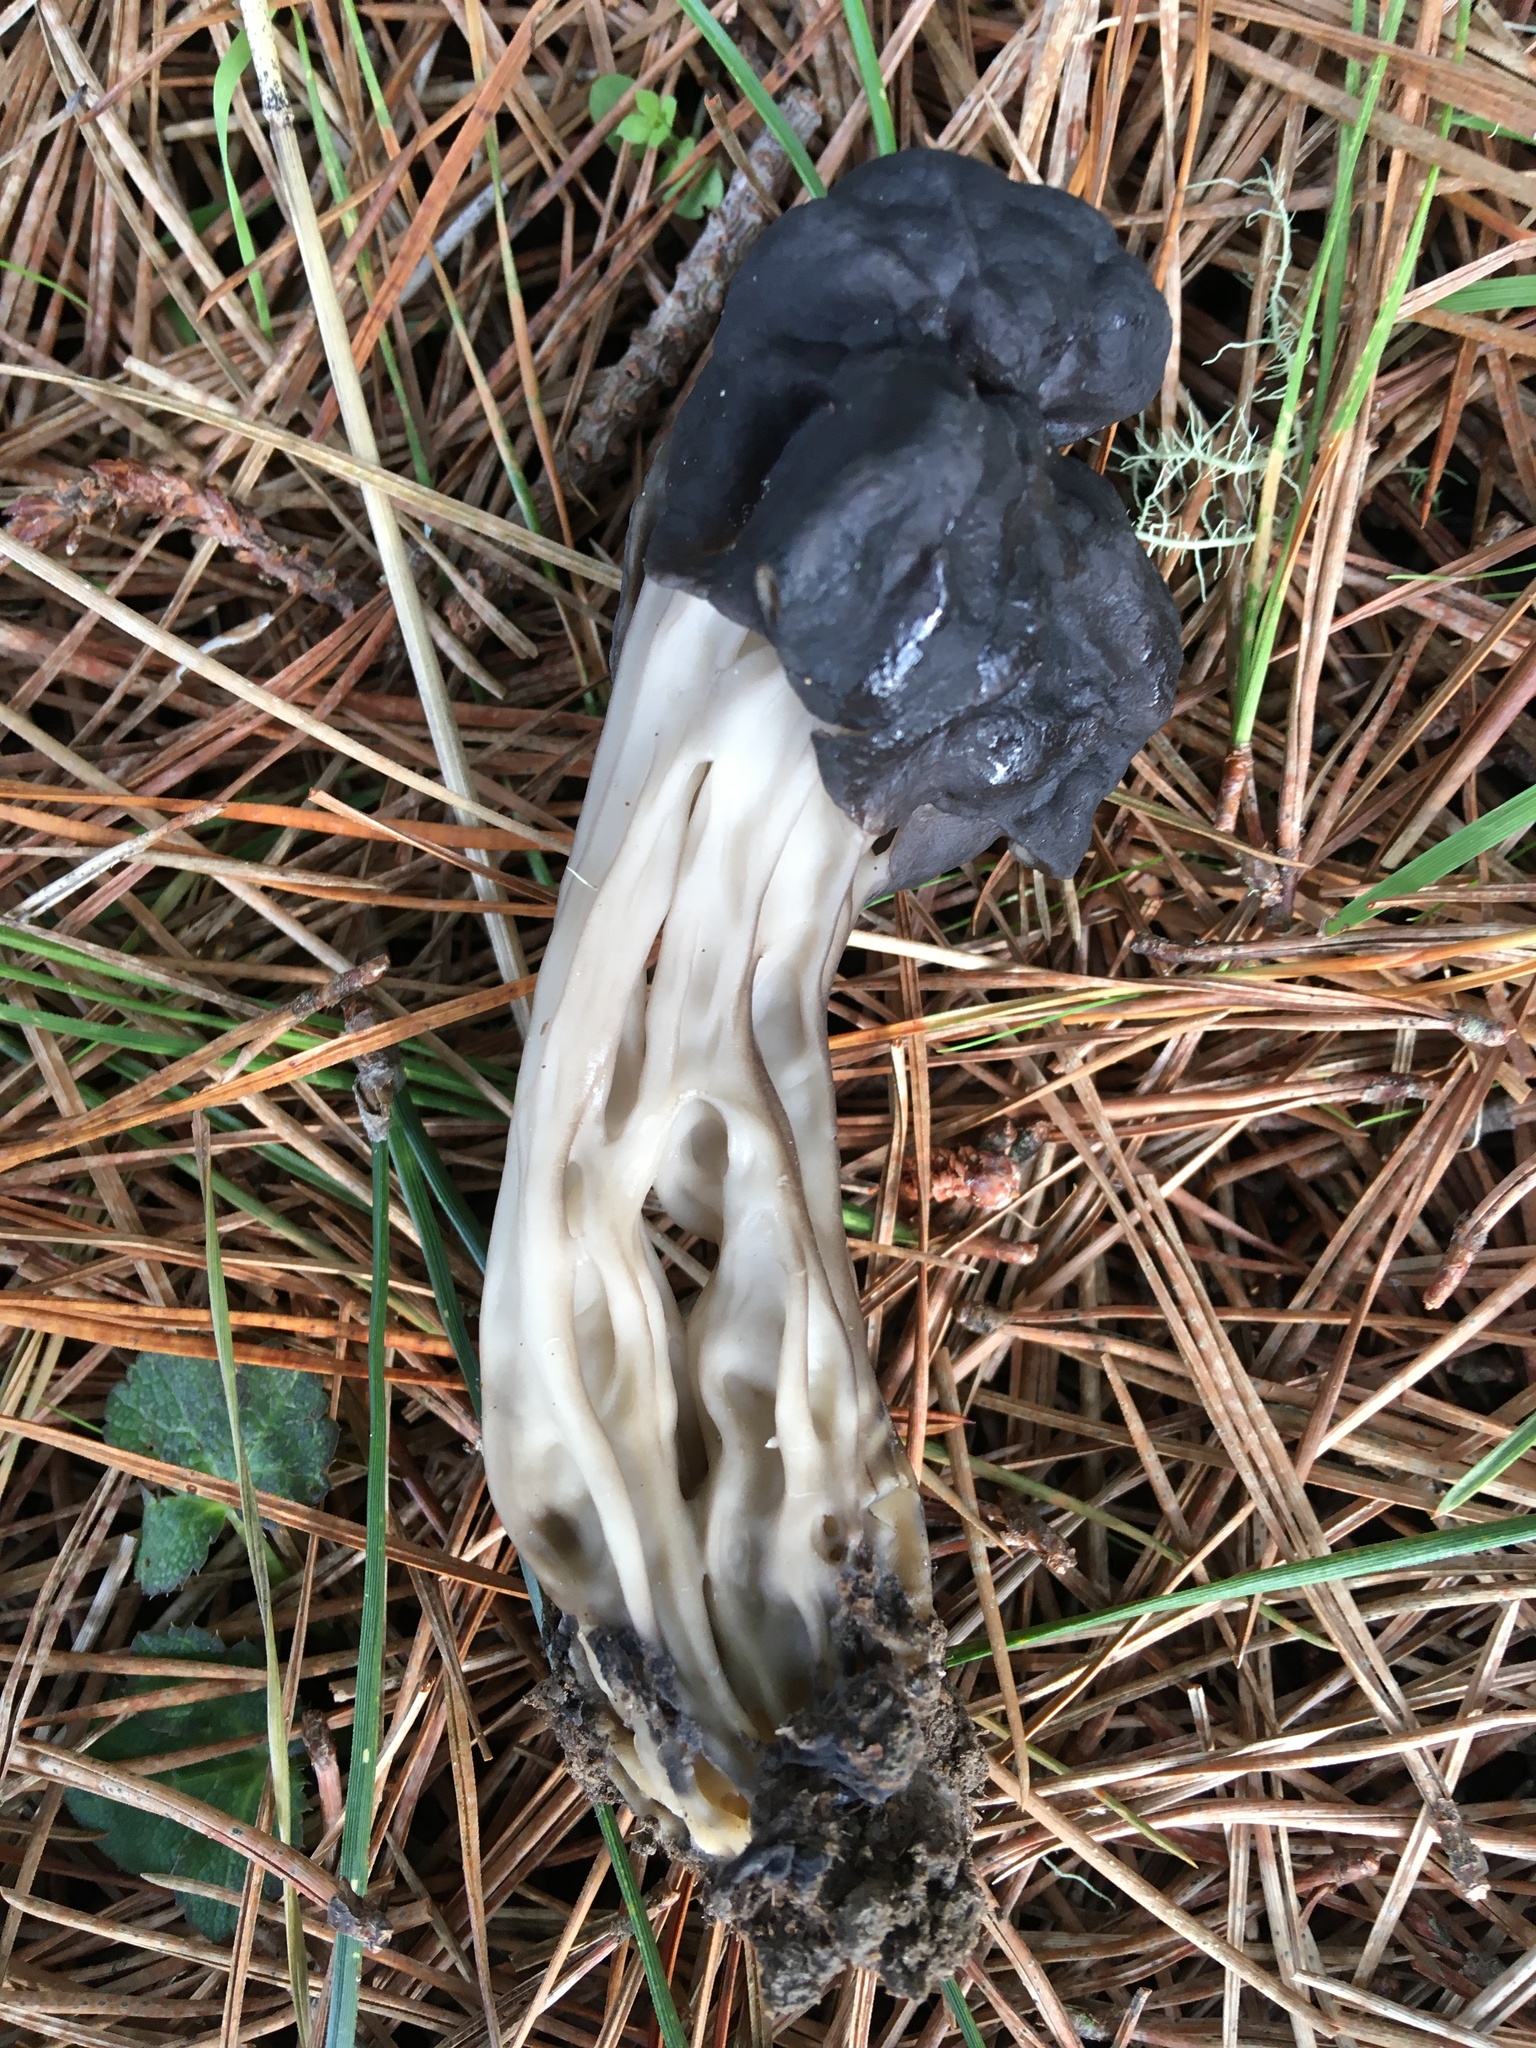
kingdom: Fungi
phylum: Ascomycota
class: Pezizomycetes
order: Pezizales
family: Helvellaceae
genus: Helvella
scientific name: Helvella vespertina
